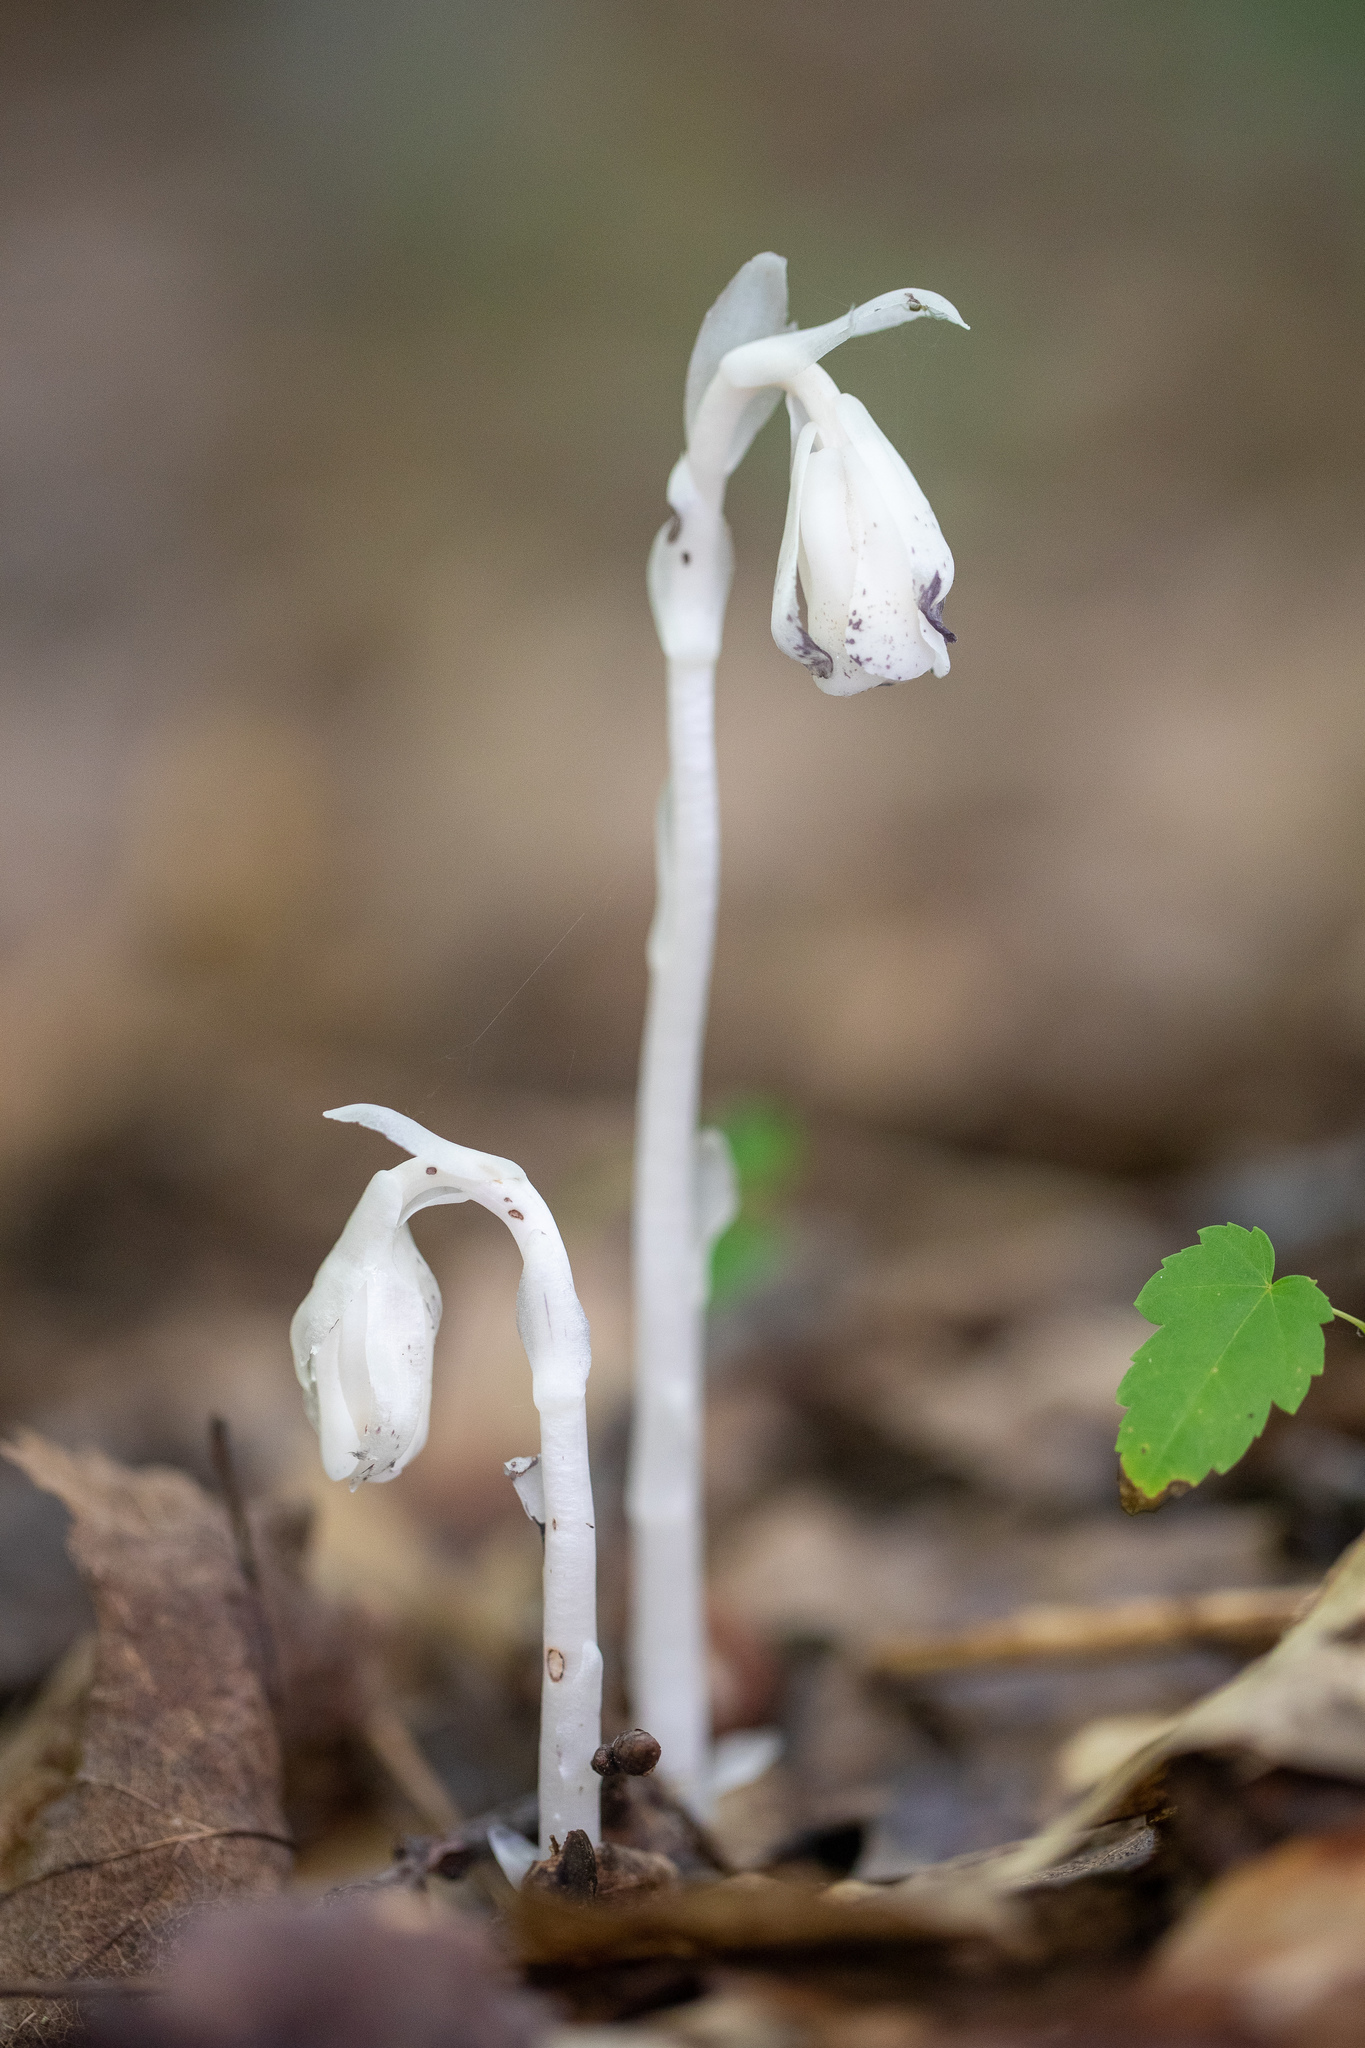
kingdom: Plantae
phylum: Tracheophyta
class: Magnoliopsida
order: Ericales
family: Ericaceae
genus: Monotropa
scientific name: Monotropa uniflora
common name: Convulsion root
